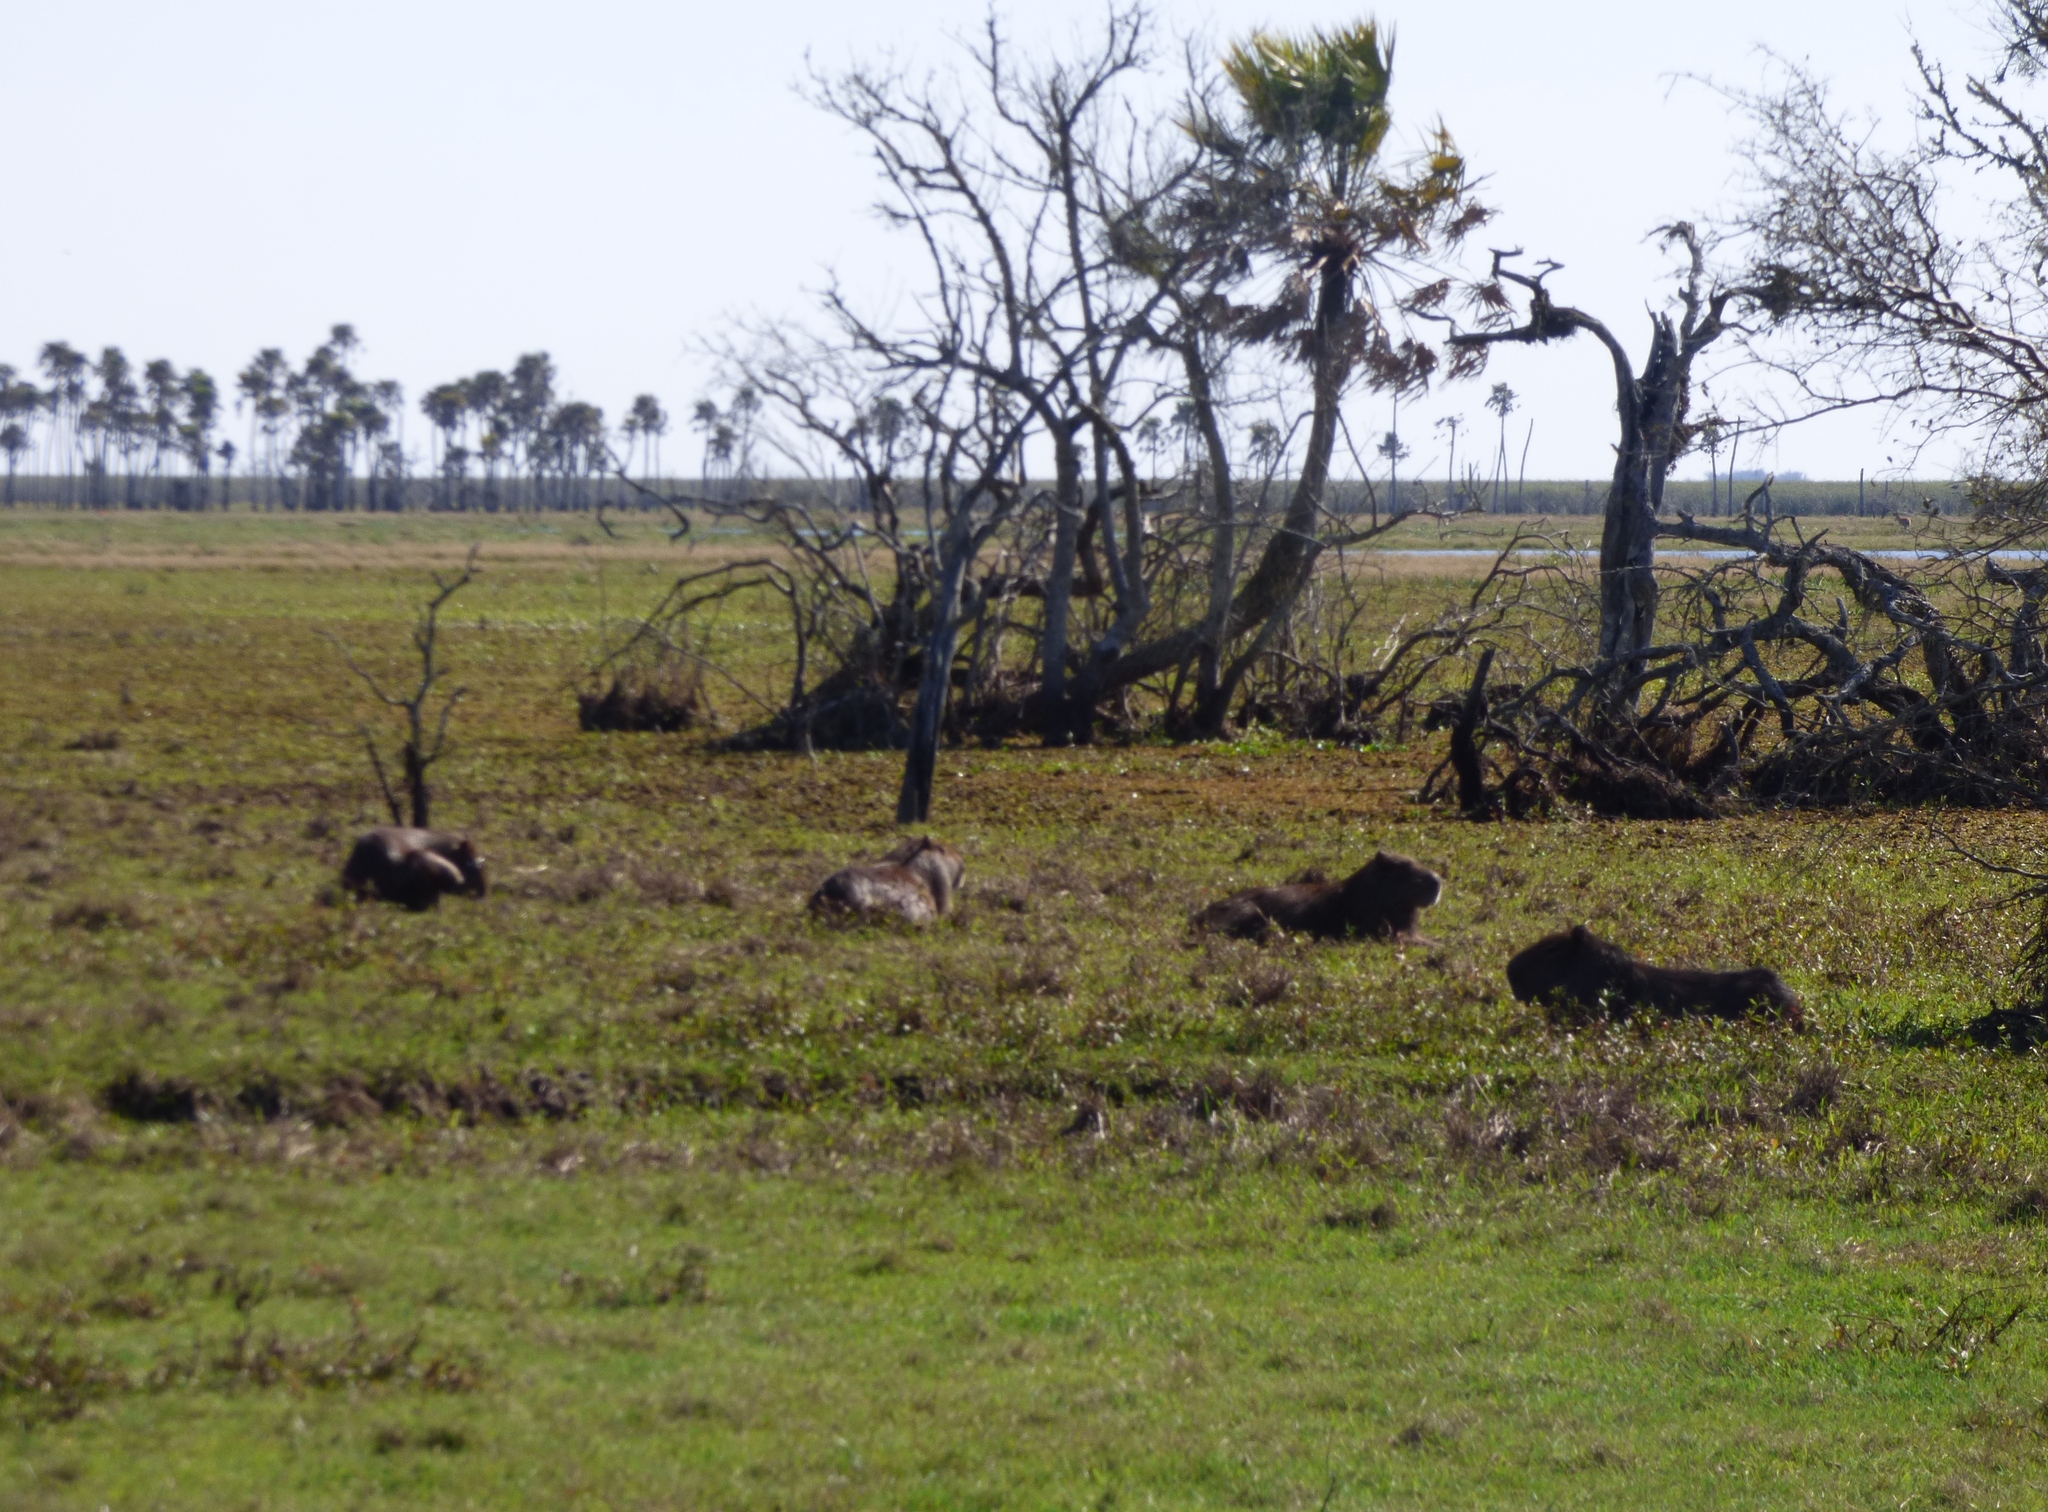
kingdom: Animalia
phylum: Chordata
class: Mammalia
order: Rodentia
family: Caviidae
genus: Hydrochoerus
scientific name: Hydrochoerus hydrochaeris
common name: Capybara
